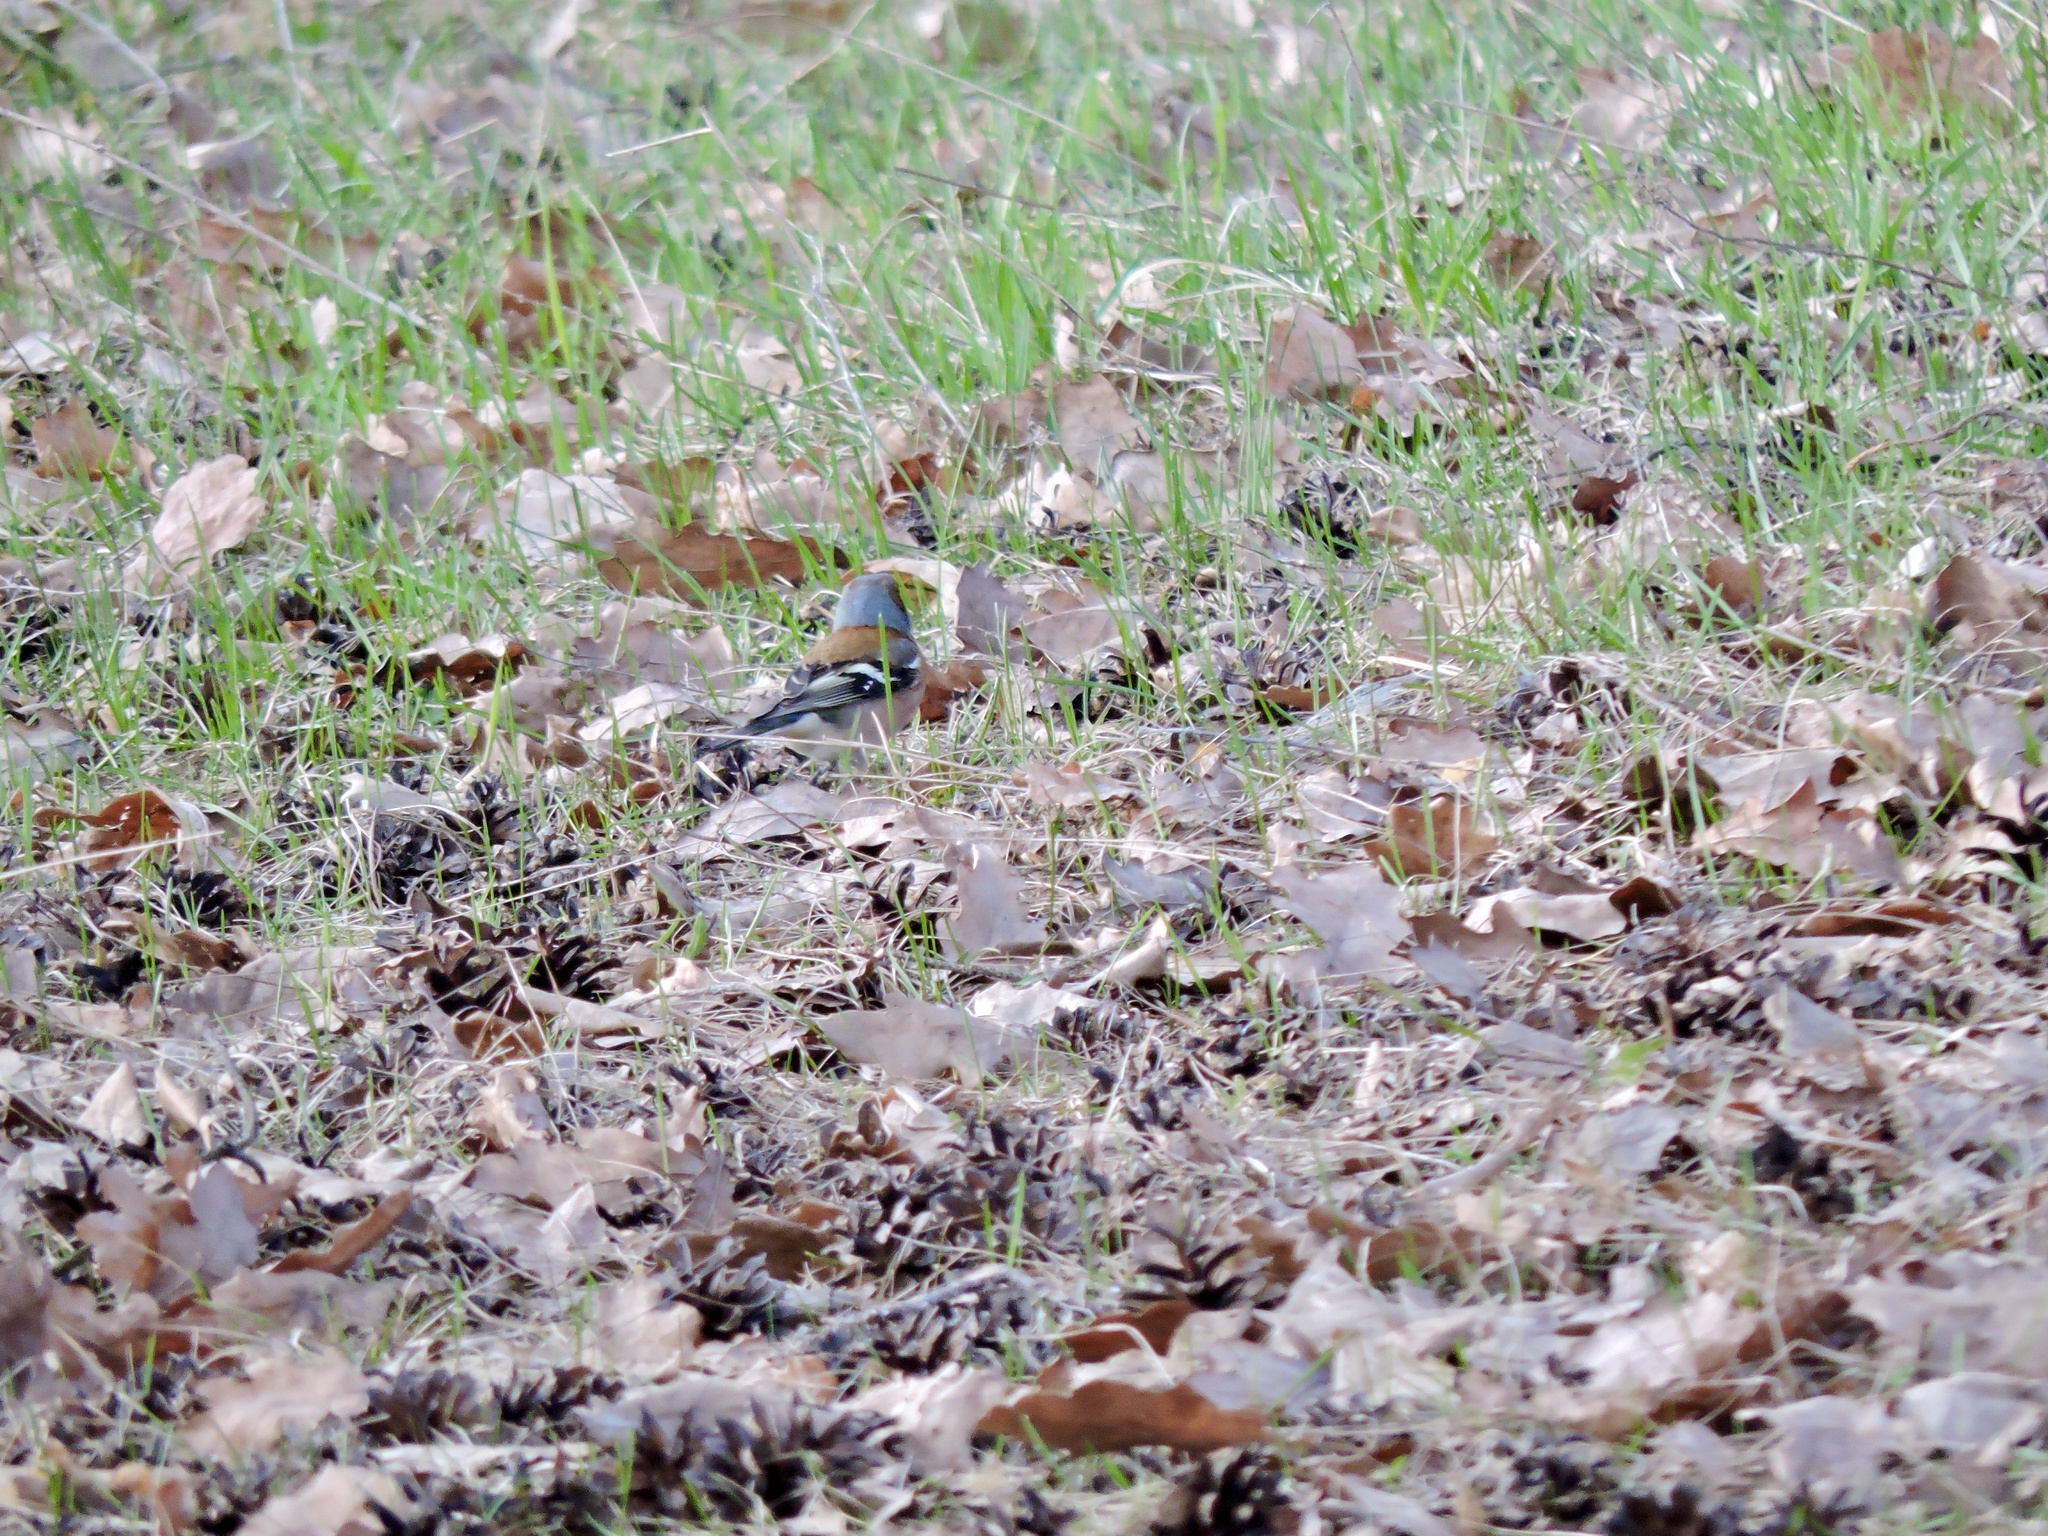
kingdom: Animalia
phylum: Chordata
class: Aves
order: Passeriformes
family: Fringillidae
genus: Fringilla
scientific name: Fringilla coelebs
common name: Common chaffinch
